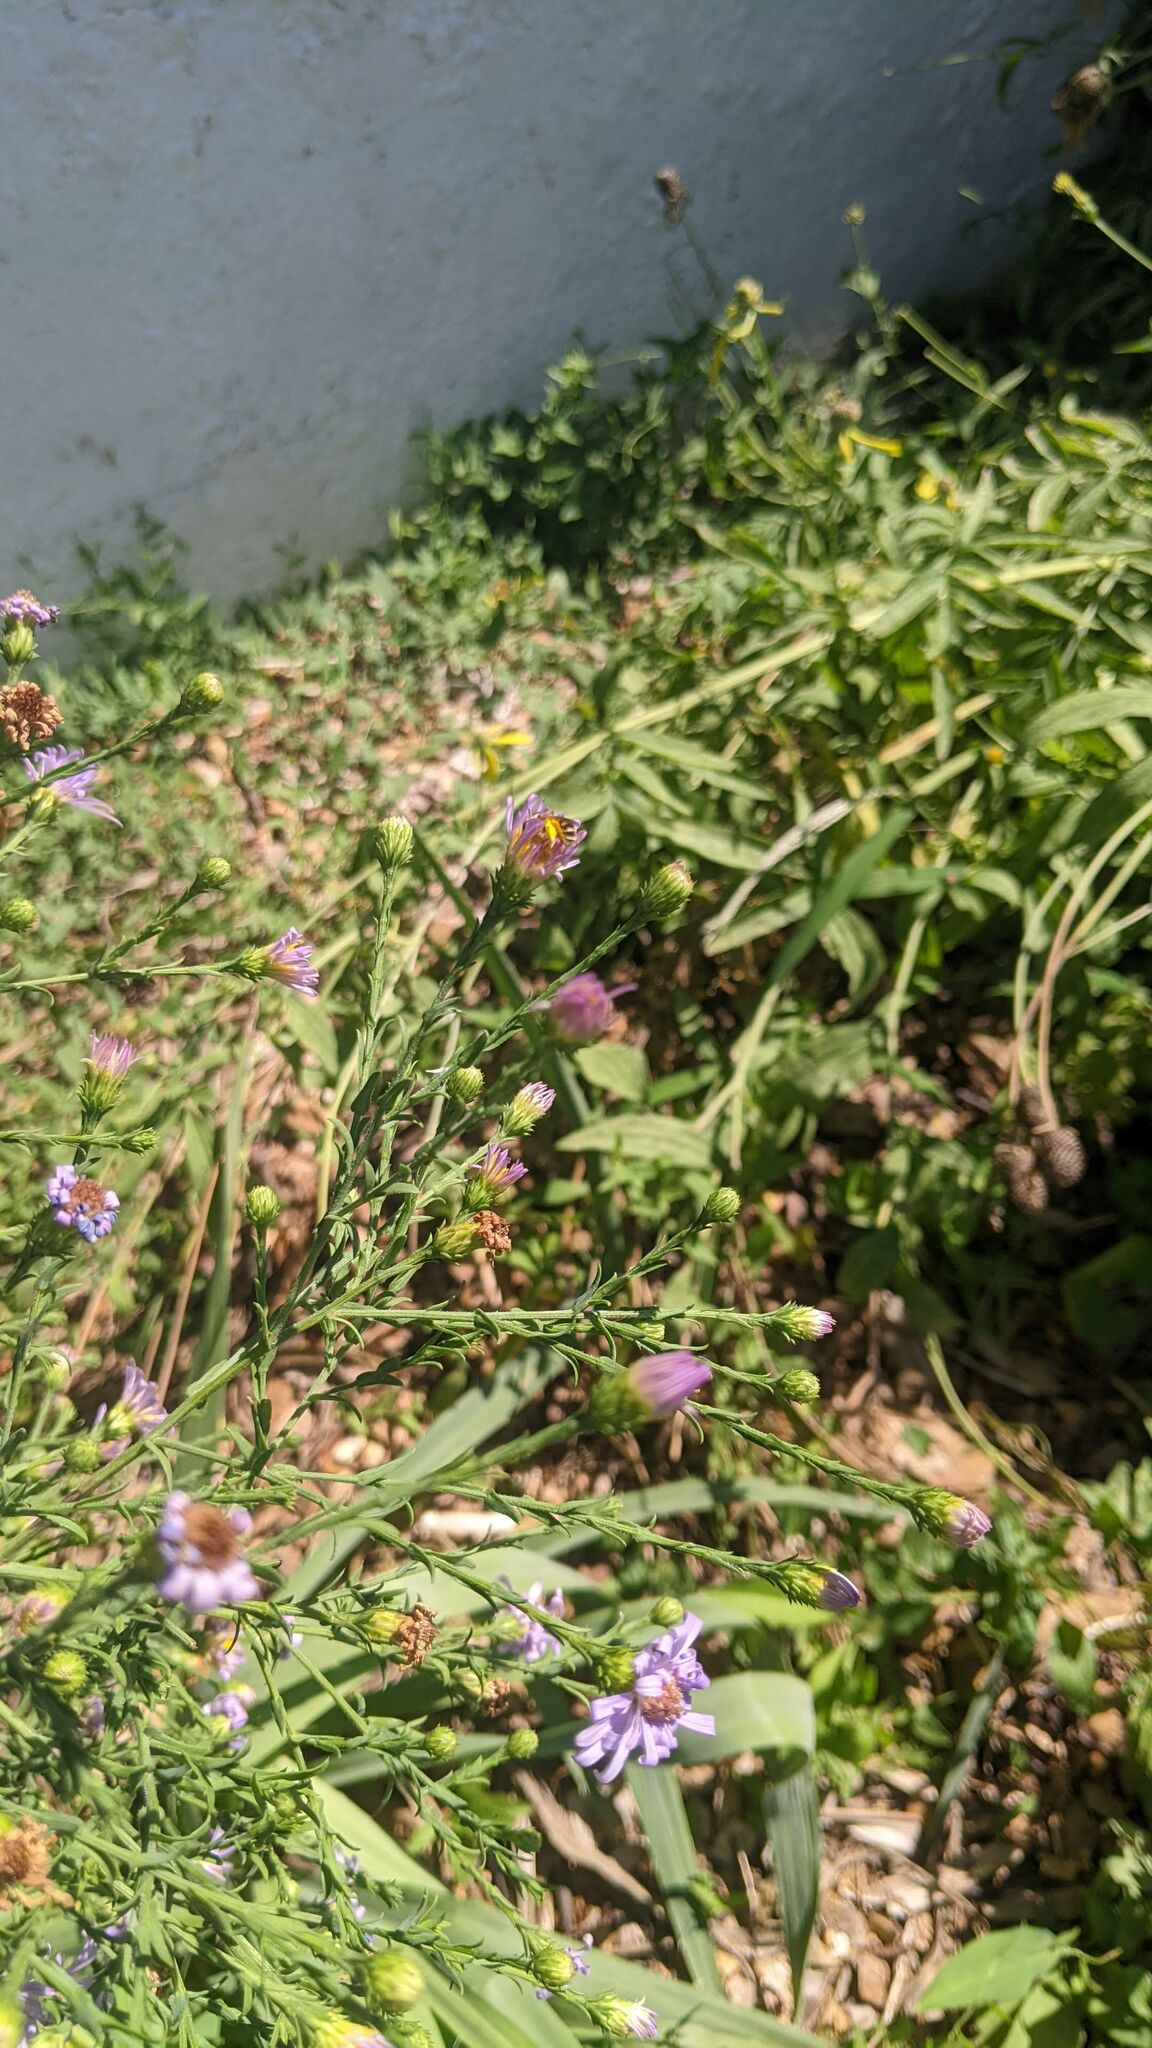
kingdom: Animalia
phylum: Arthropoda
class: Insecta
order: Hymenoptera
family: Halictidae
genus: Halictus
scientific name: Halictus ligatus
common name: Ligated furrow bee
